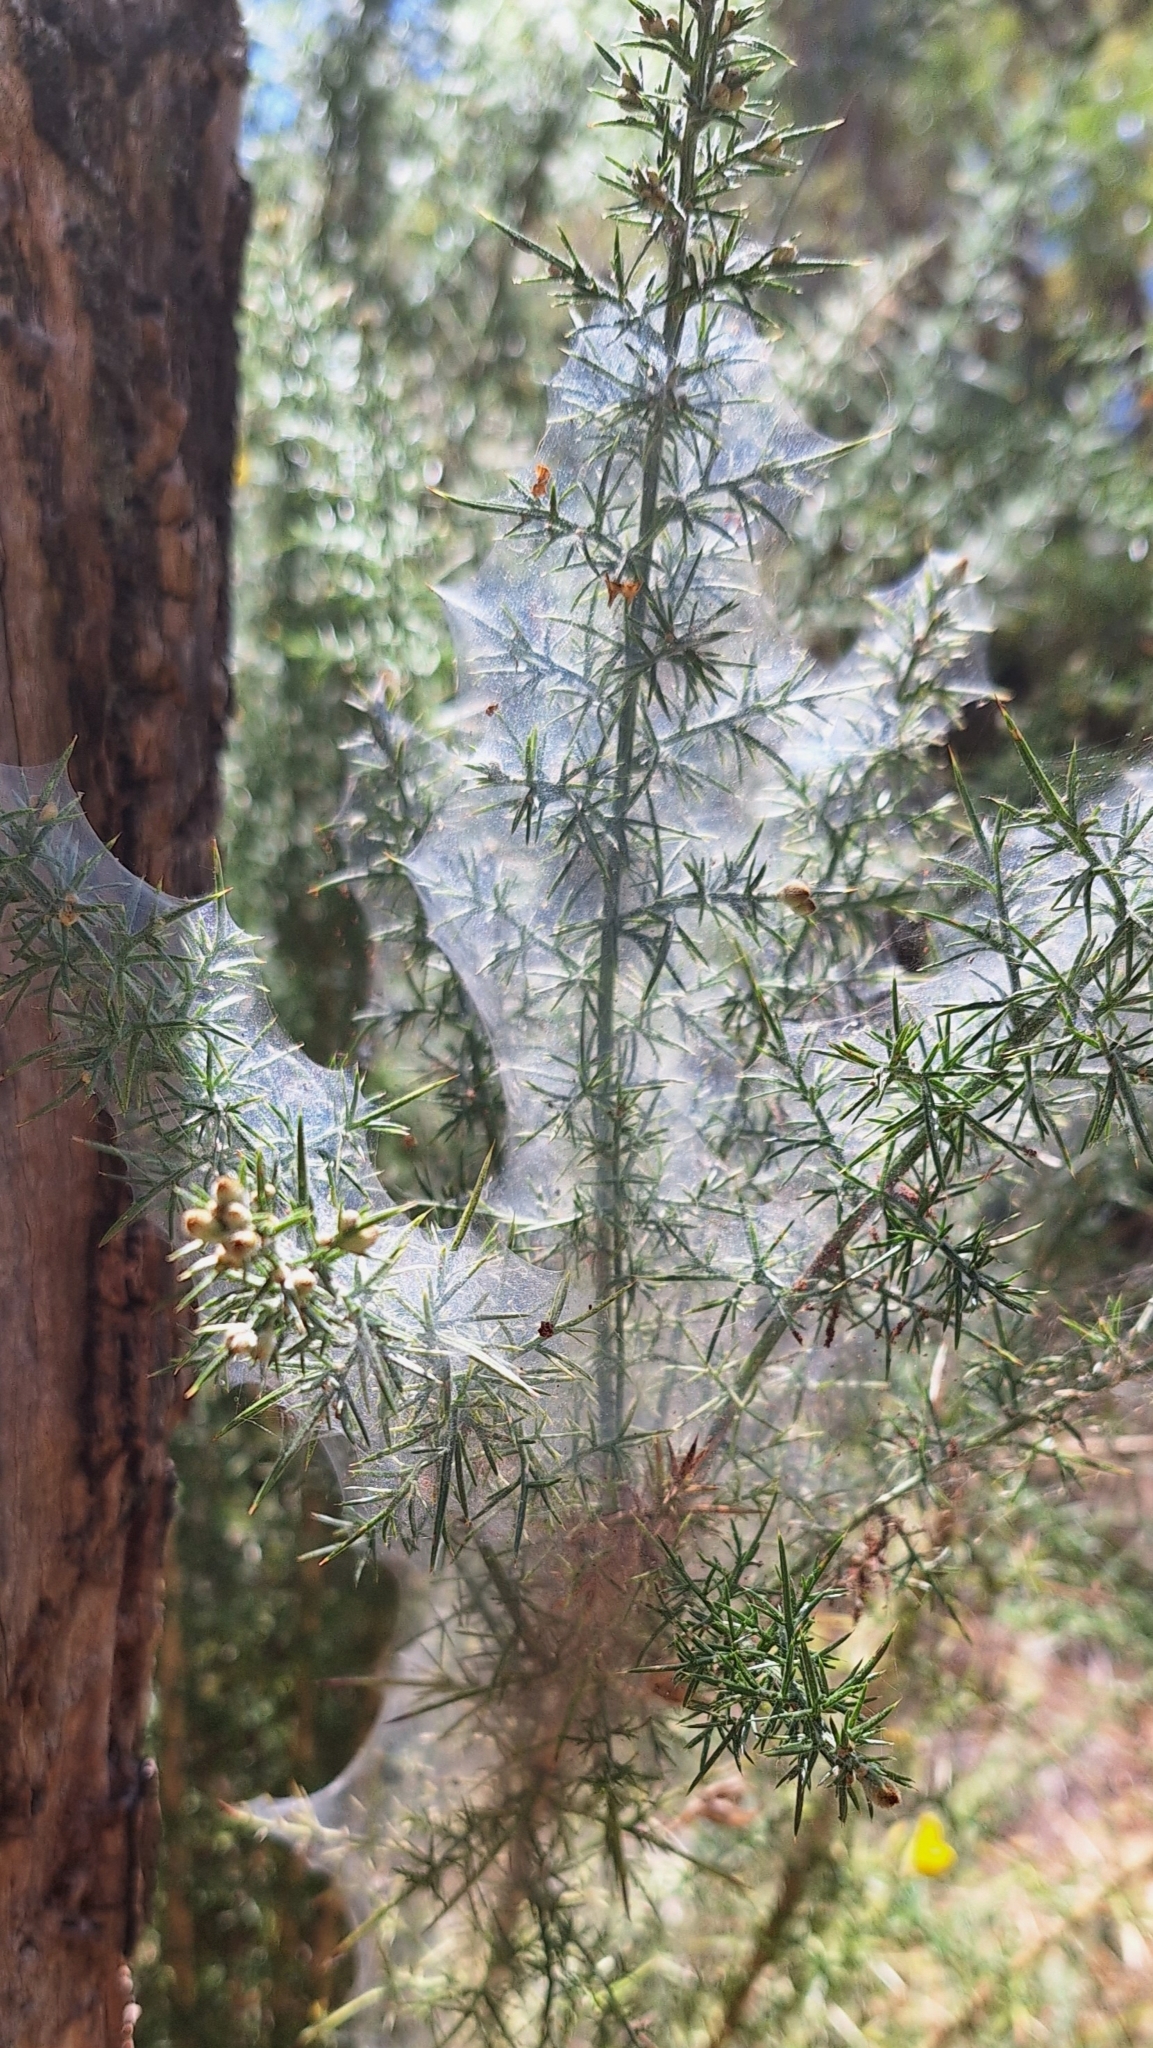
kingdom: Animalia
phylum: Arthropoda
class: Arachnida
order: Trombidiformes
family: Tetranychidae
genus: Tetranychus
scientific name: Tetranychus lintearius
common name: Gorse spider mite
